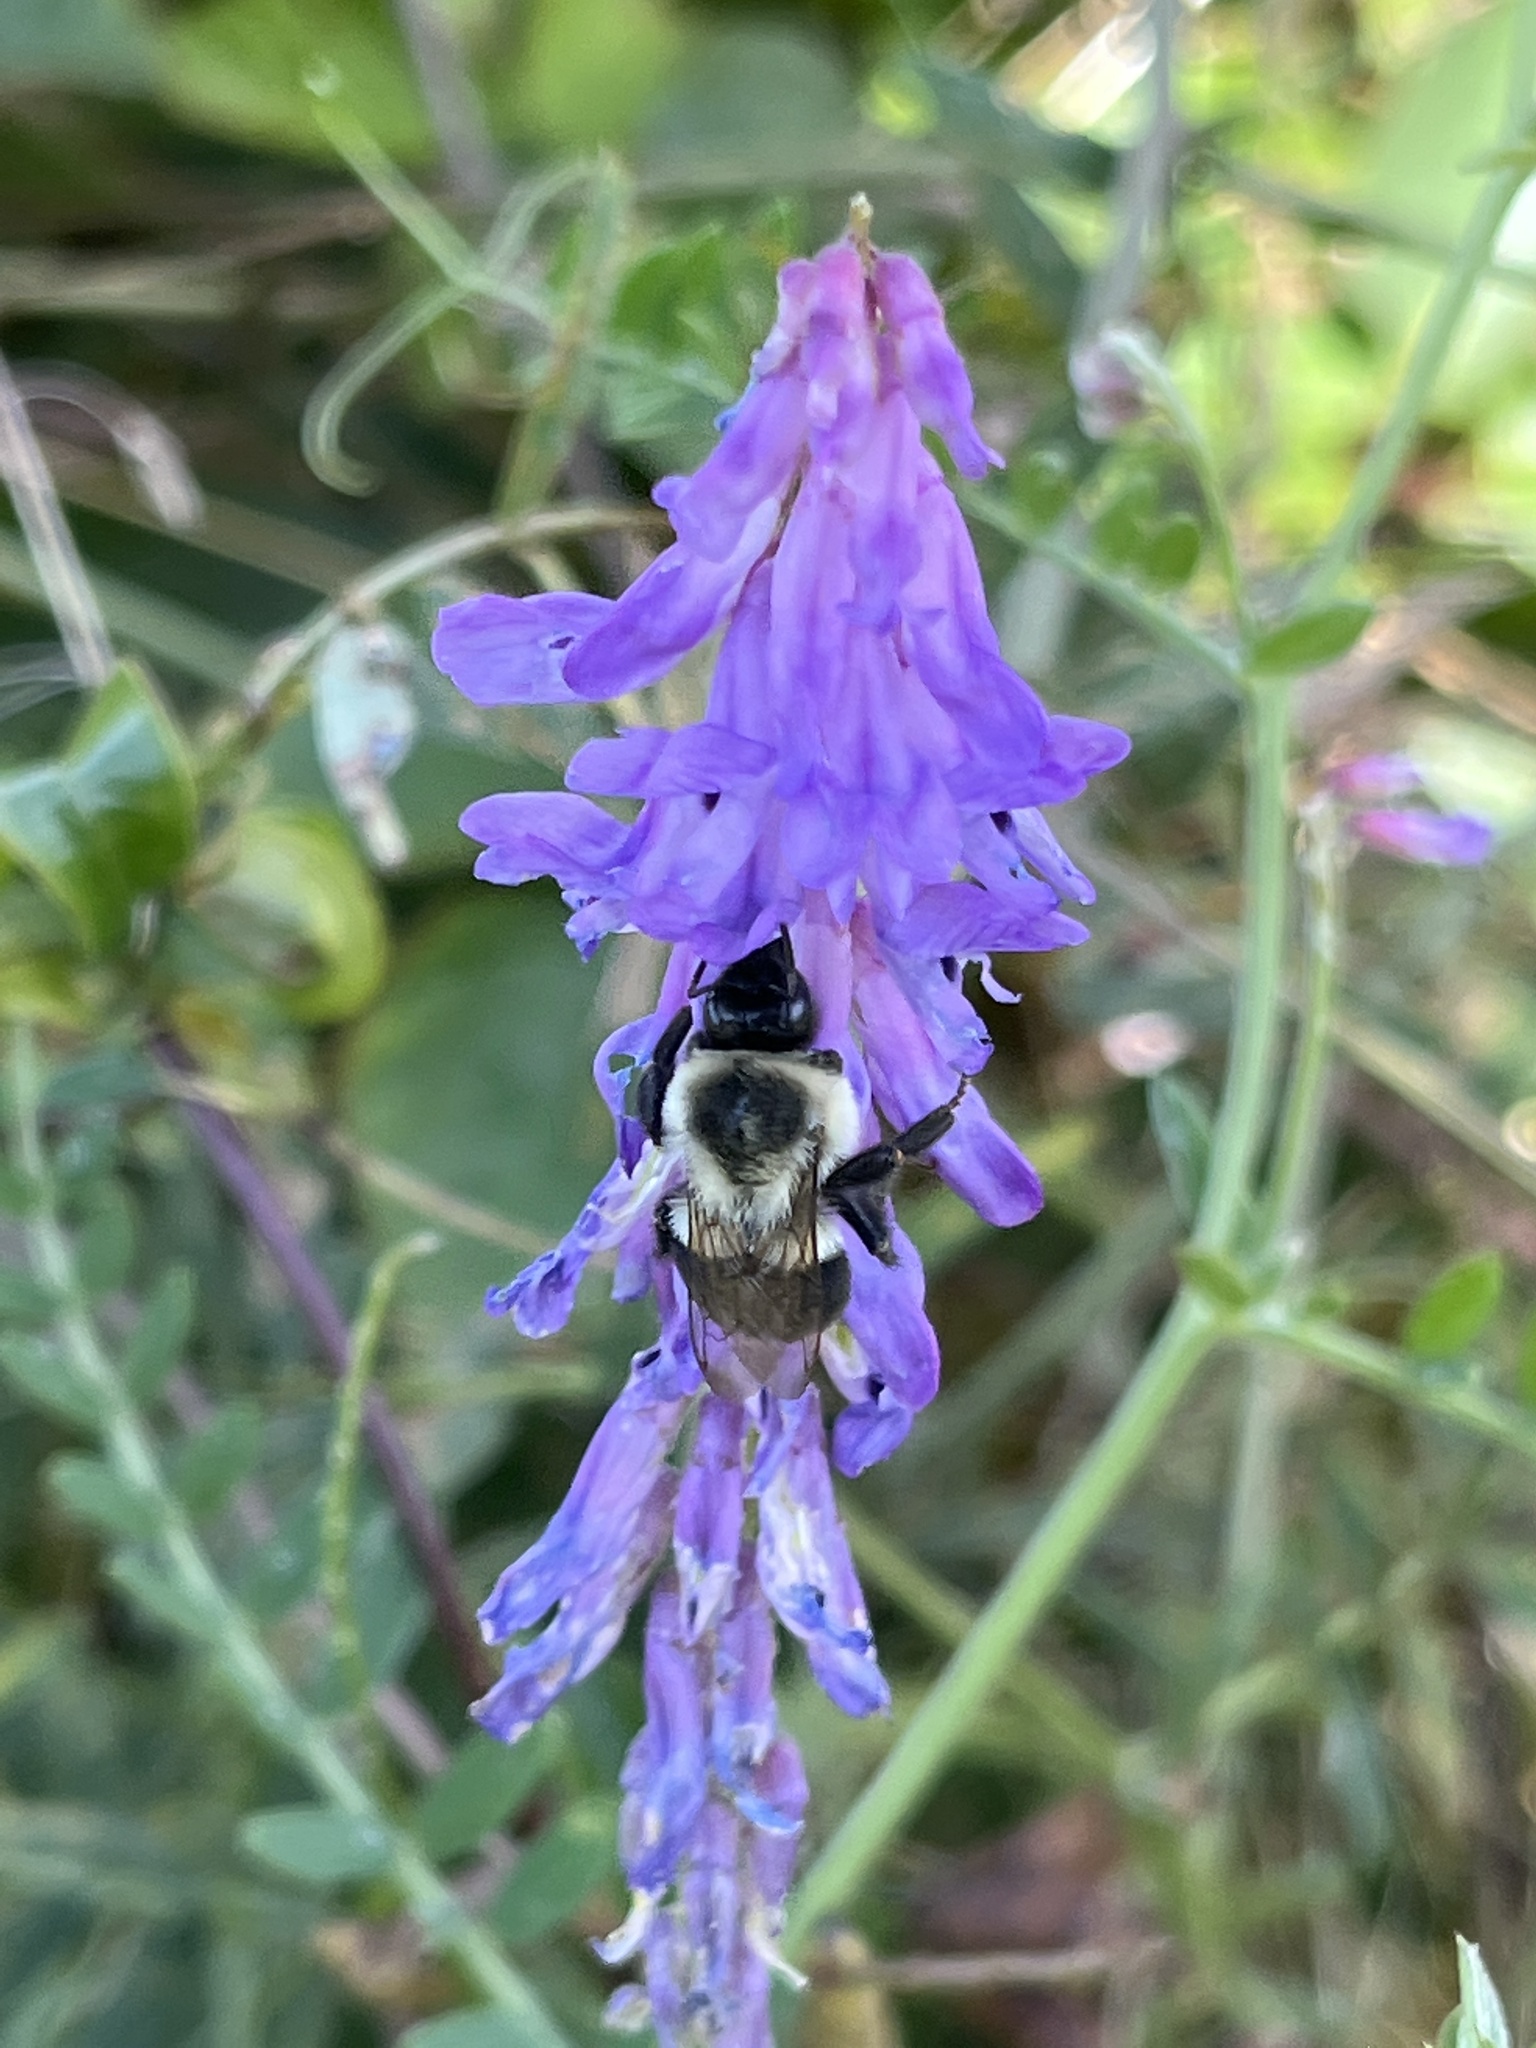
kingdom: Animalia
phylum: Arthropoda
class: Insecta
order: Hymenoptera
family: Apidae
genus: Bombus
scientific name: Bombus impatiens
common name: Common eastern bumble bee
